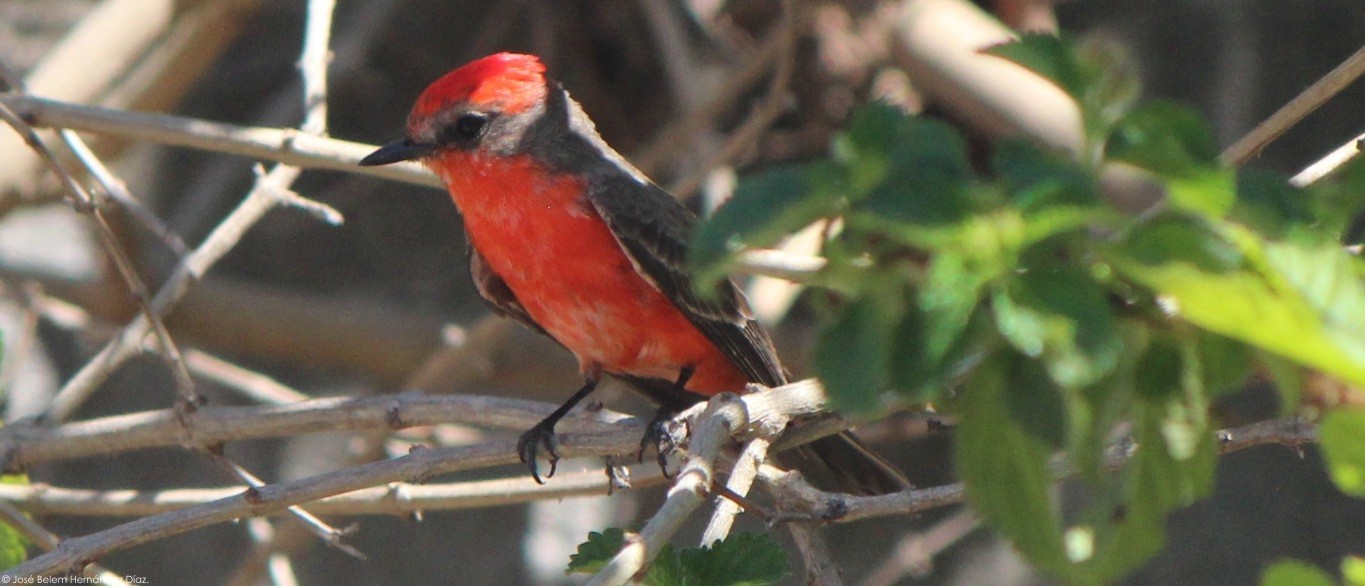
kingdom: Animalia
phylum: Chordata
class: Aves
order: Passeriformes
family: Tyrannidae
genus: Pyrocephalus
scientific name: Pyrocephalus rubinus
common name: Vermilion flycatcher
